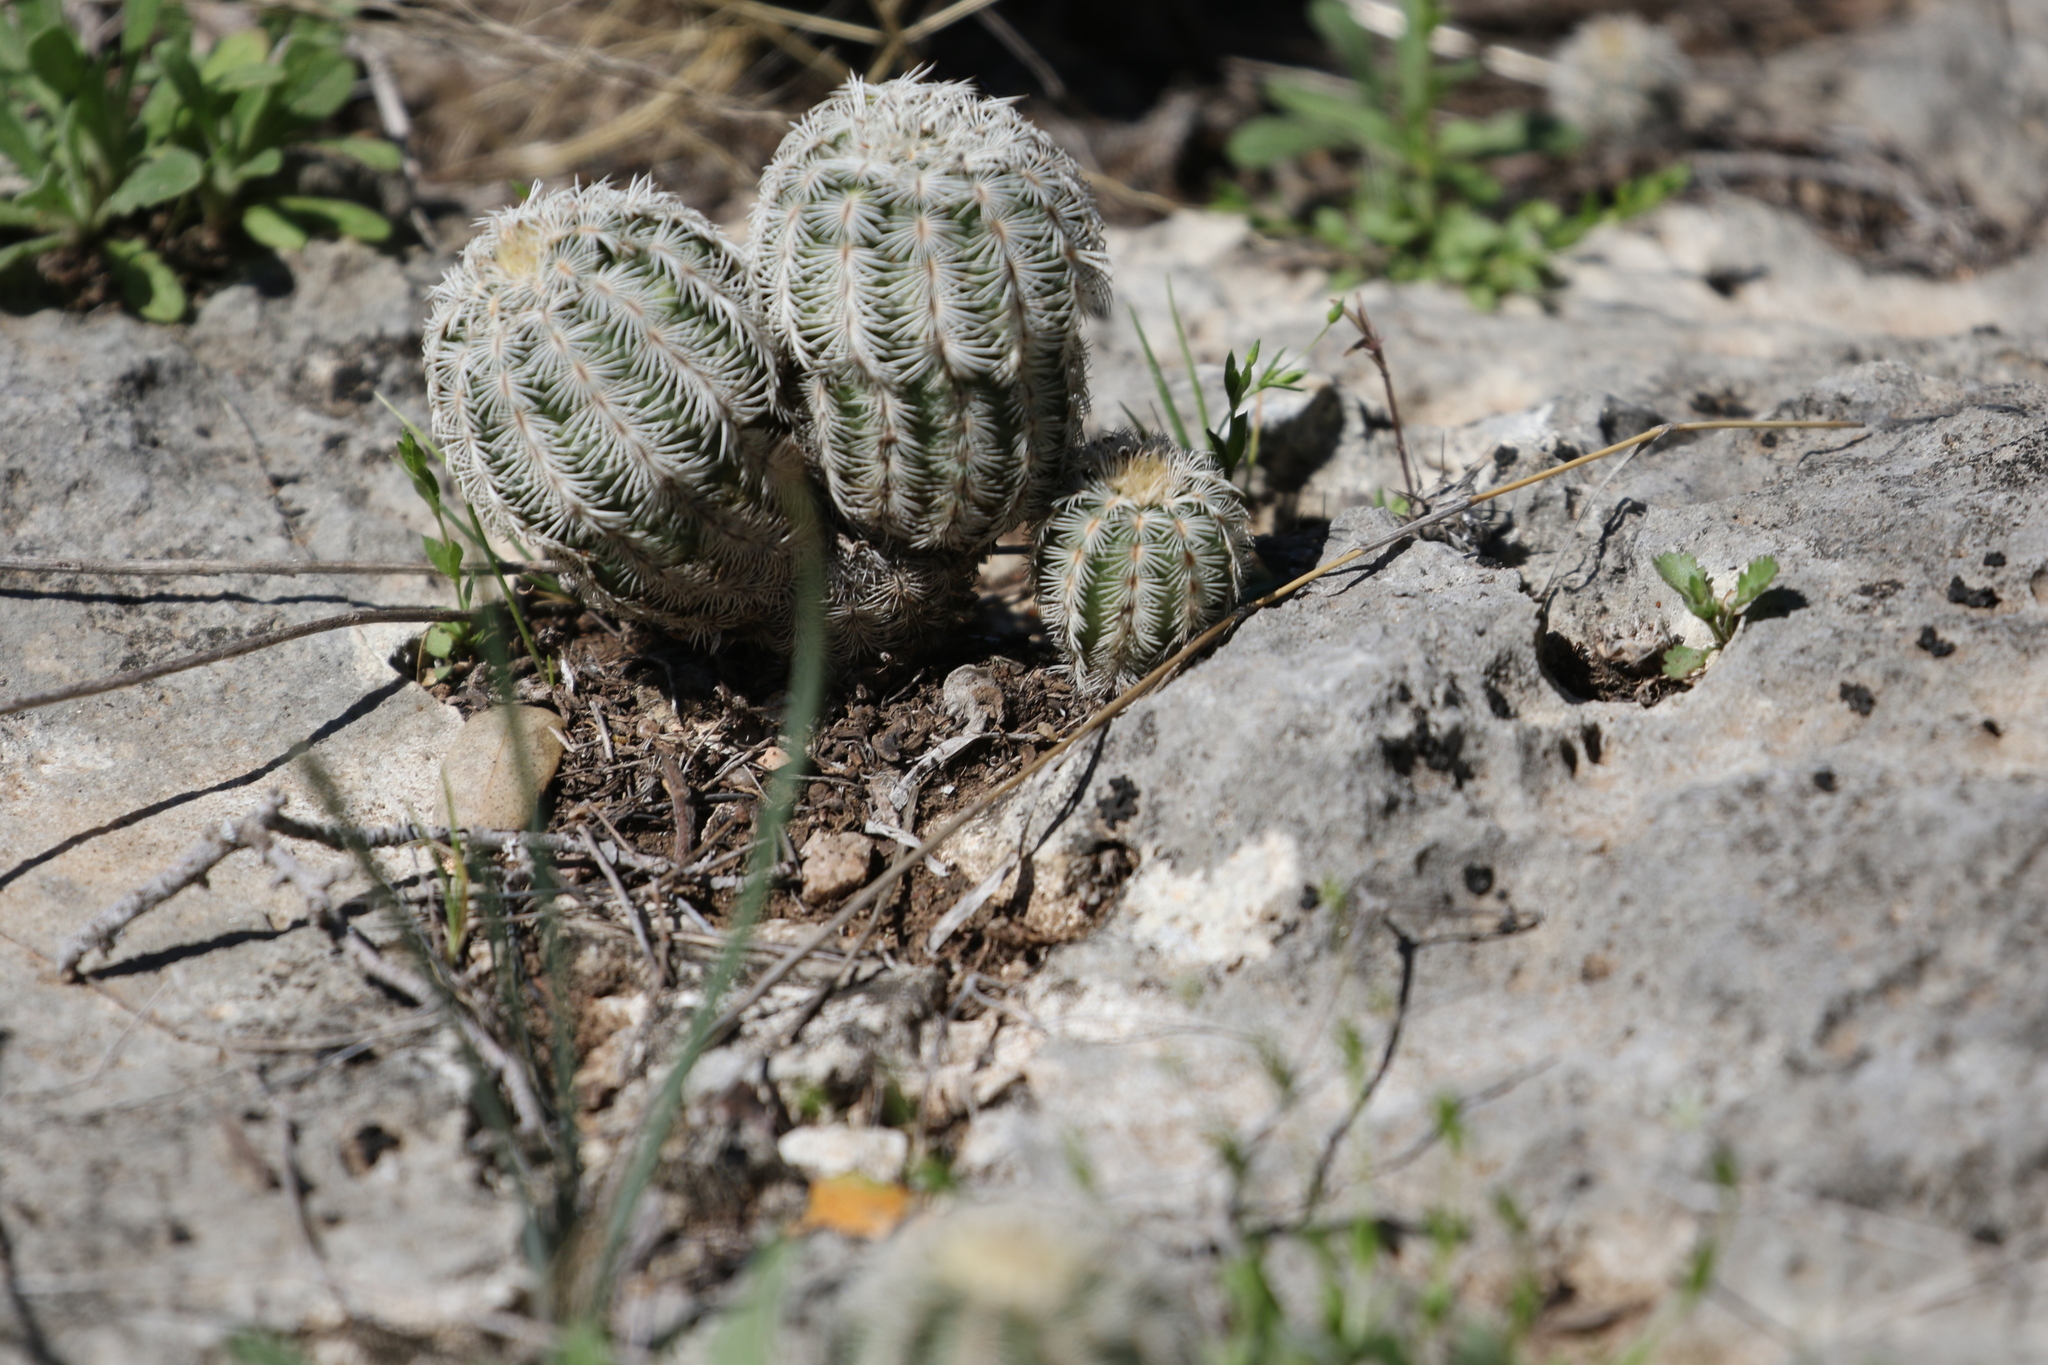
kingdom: Plantae
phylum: Tracheophyta
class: Magnoliopsida
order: Caryophyllales
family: Cactaceae
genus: Echinocereus
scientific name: Echinocereus reichenbachii
